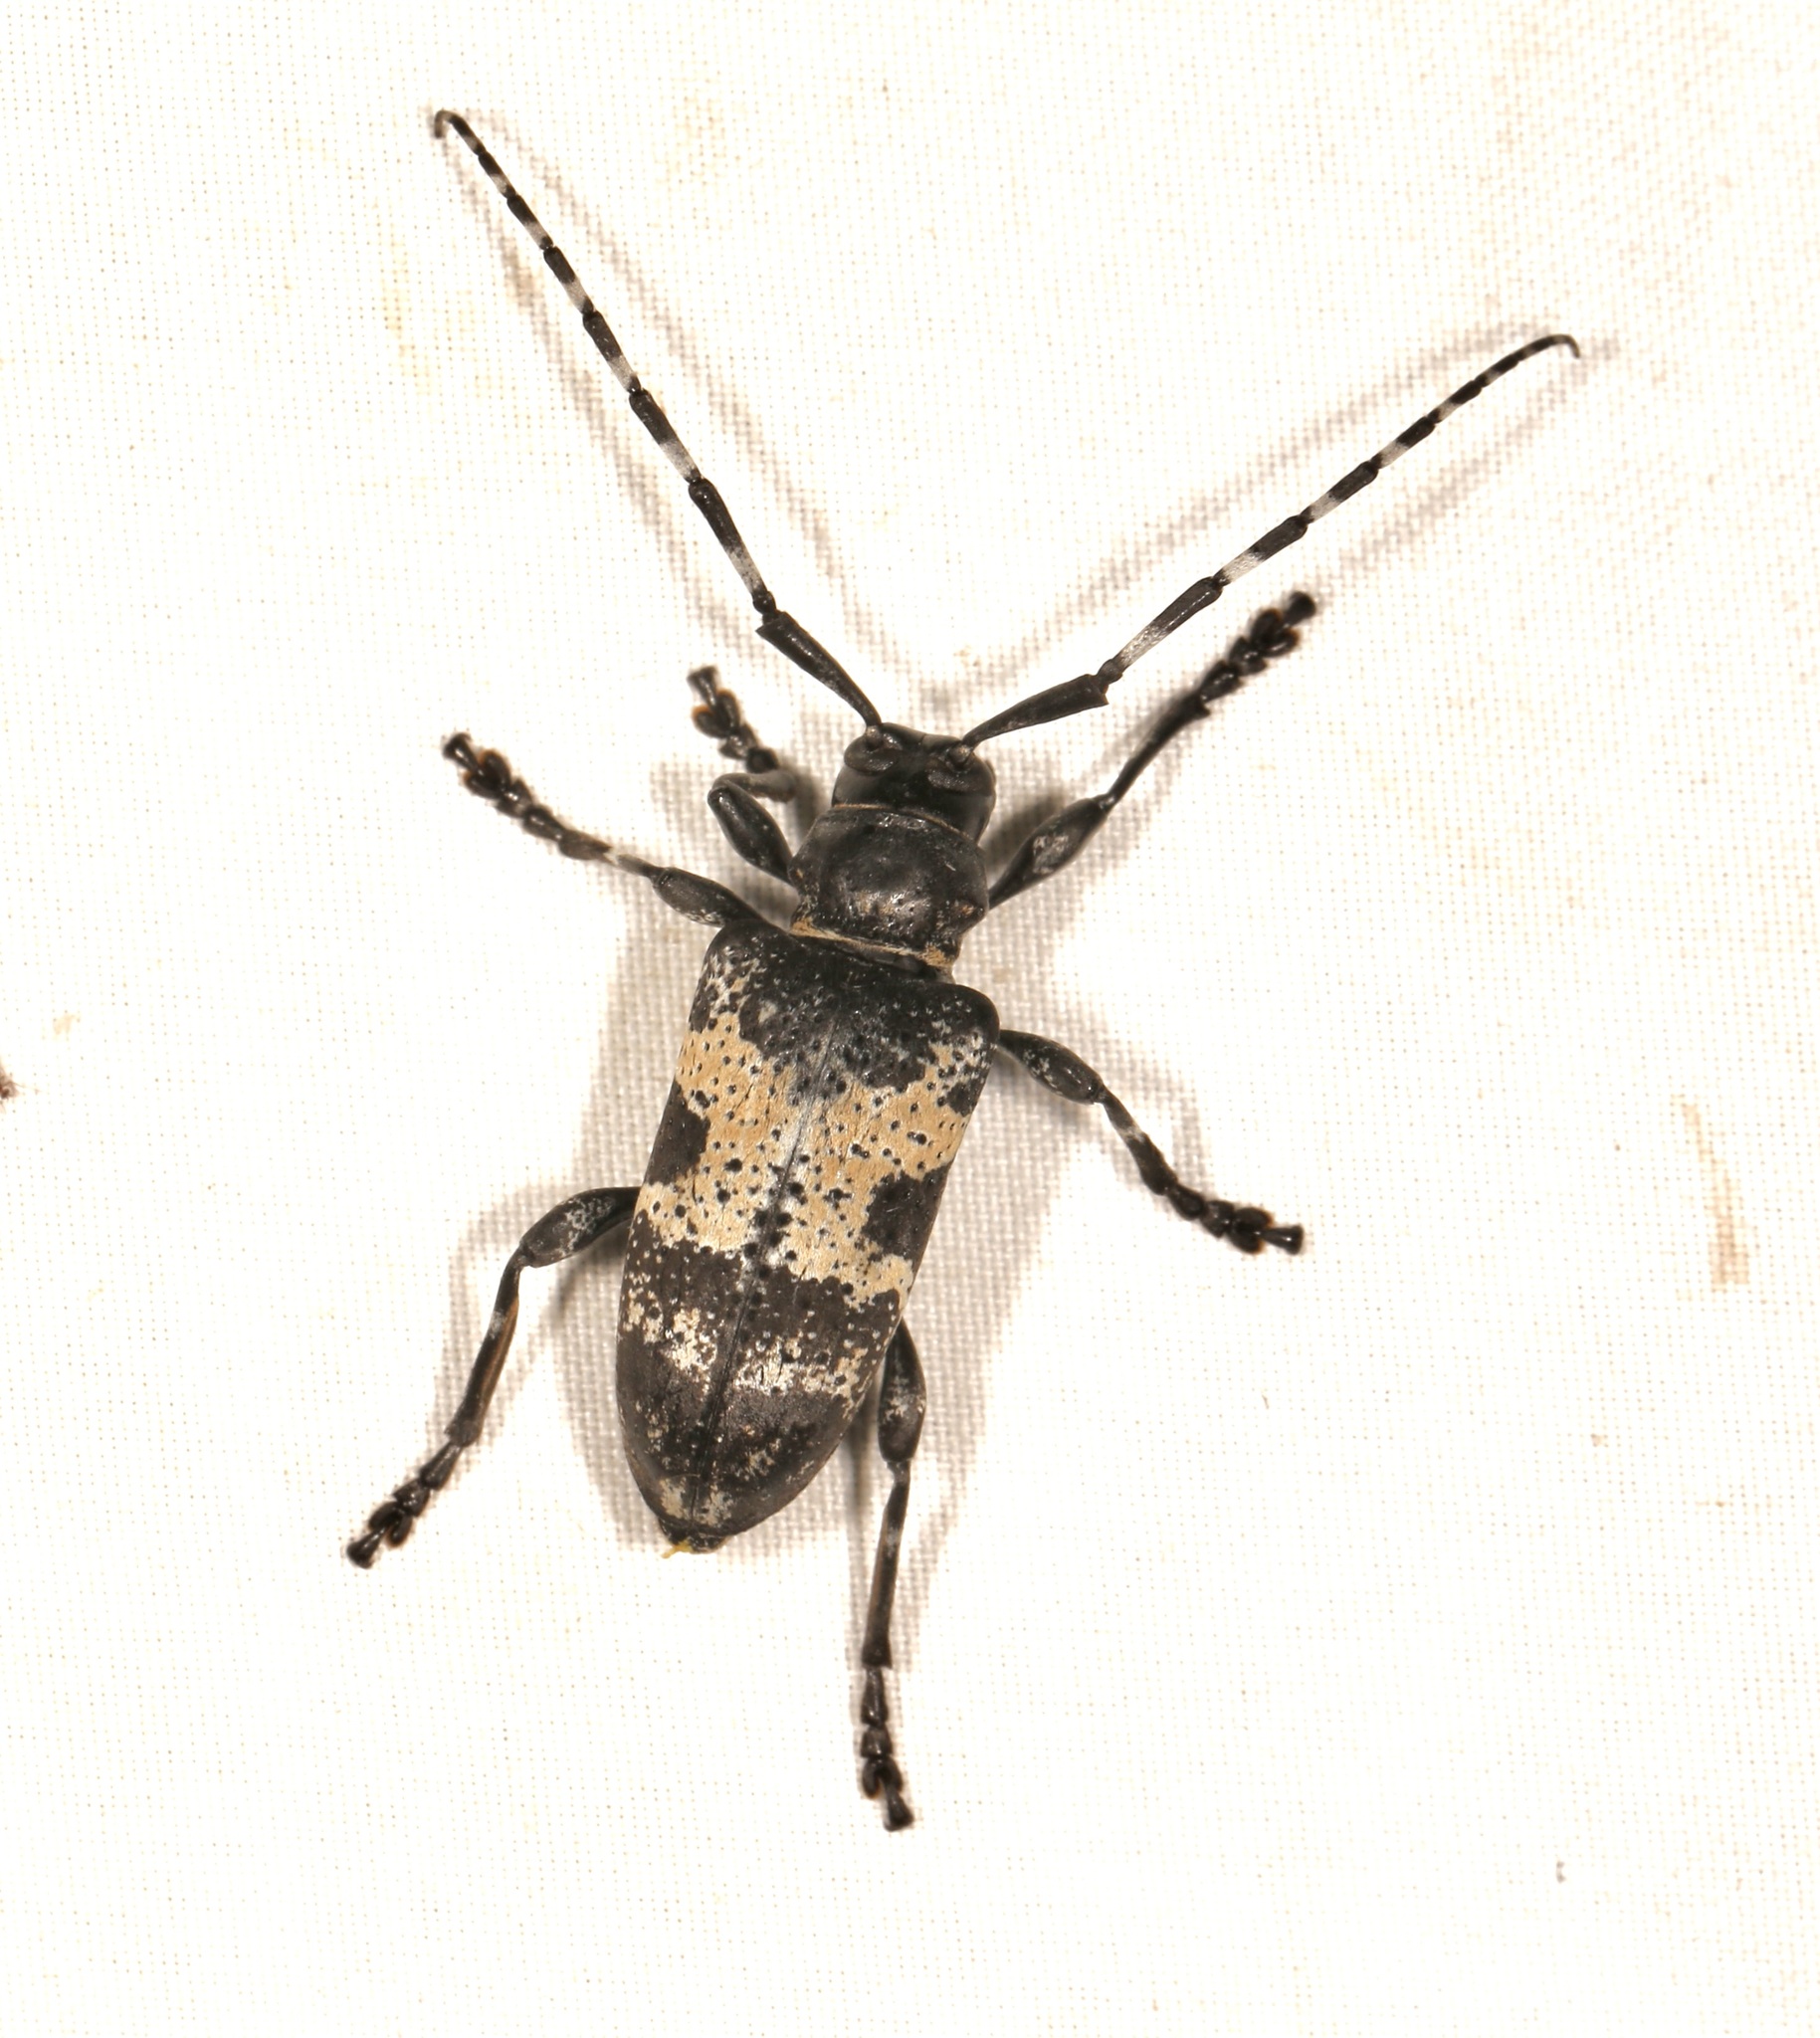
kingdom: Animalia
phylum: Arthropoda
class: Insecta
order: Coleoptera
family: Cerambycidae
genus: Coenopoeus
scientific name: Coenopoeus palmeri
